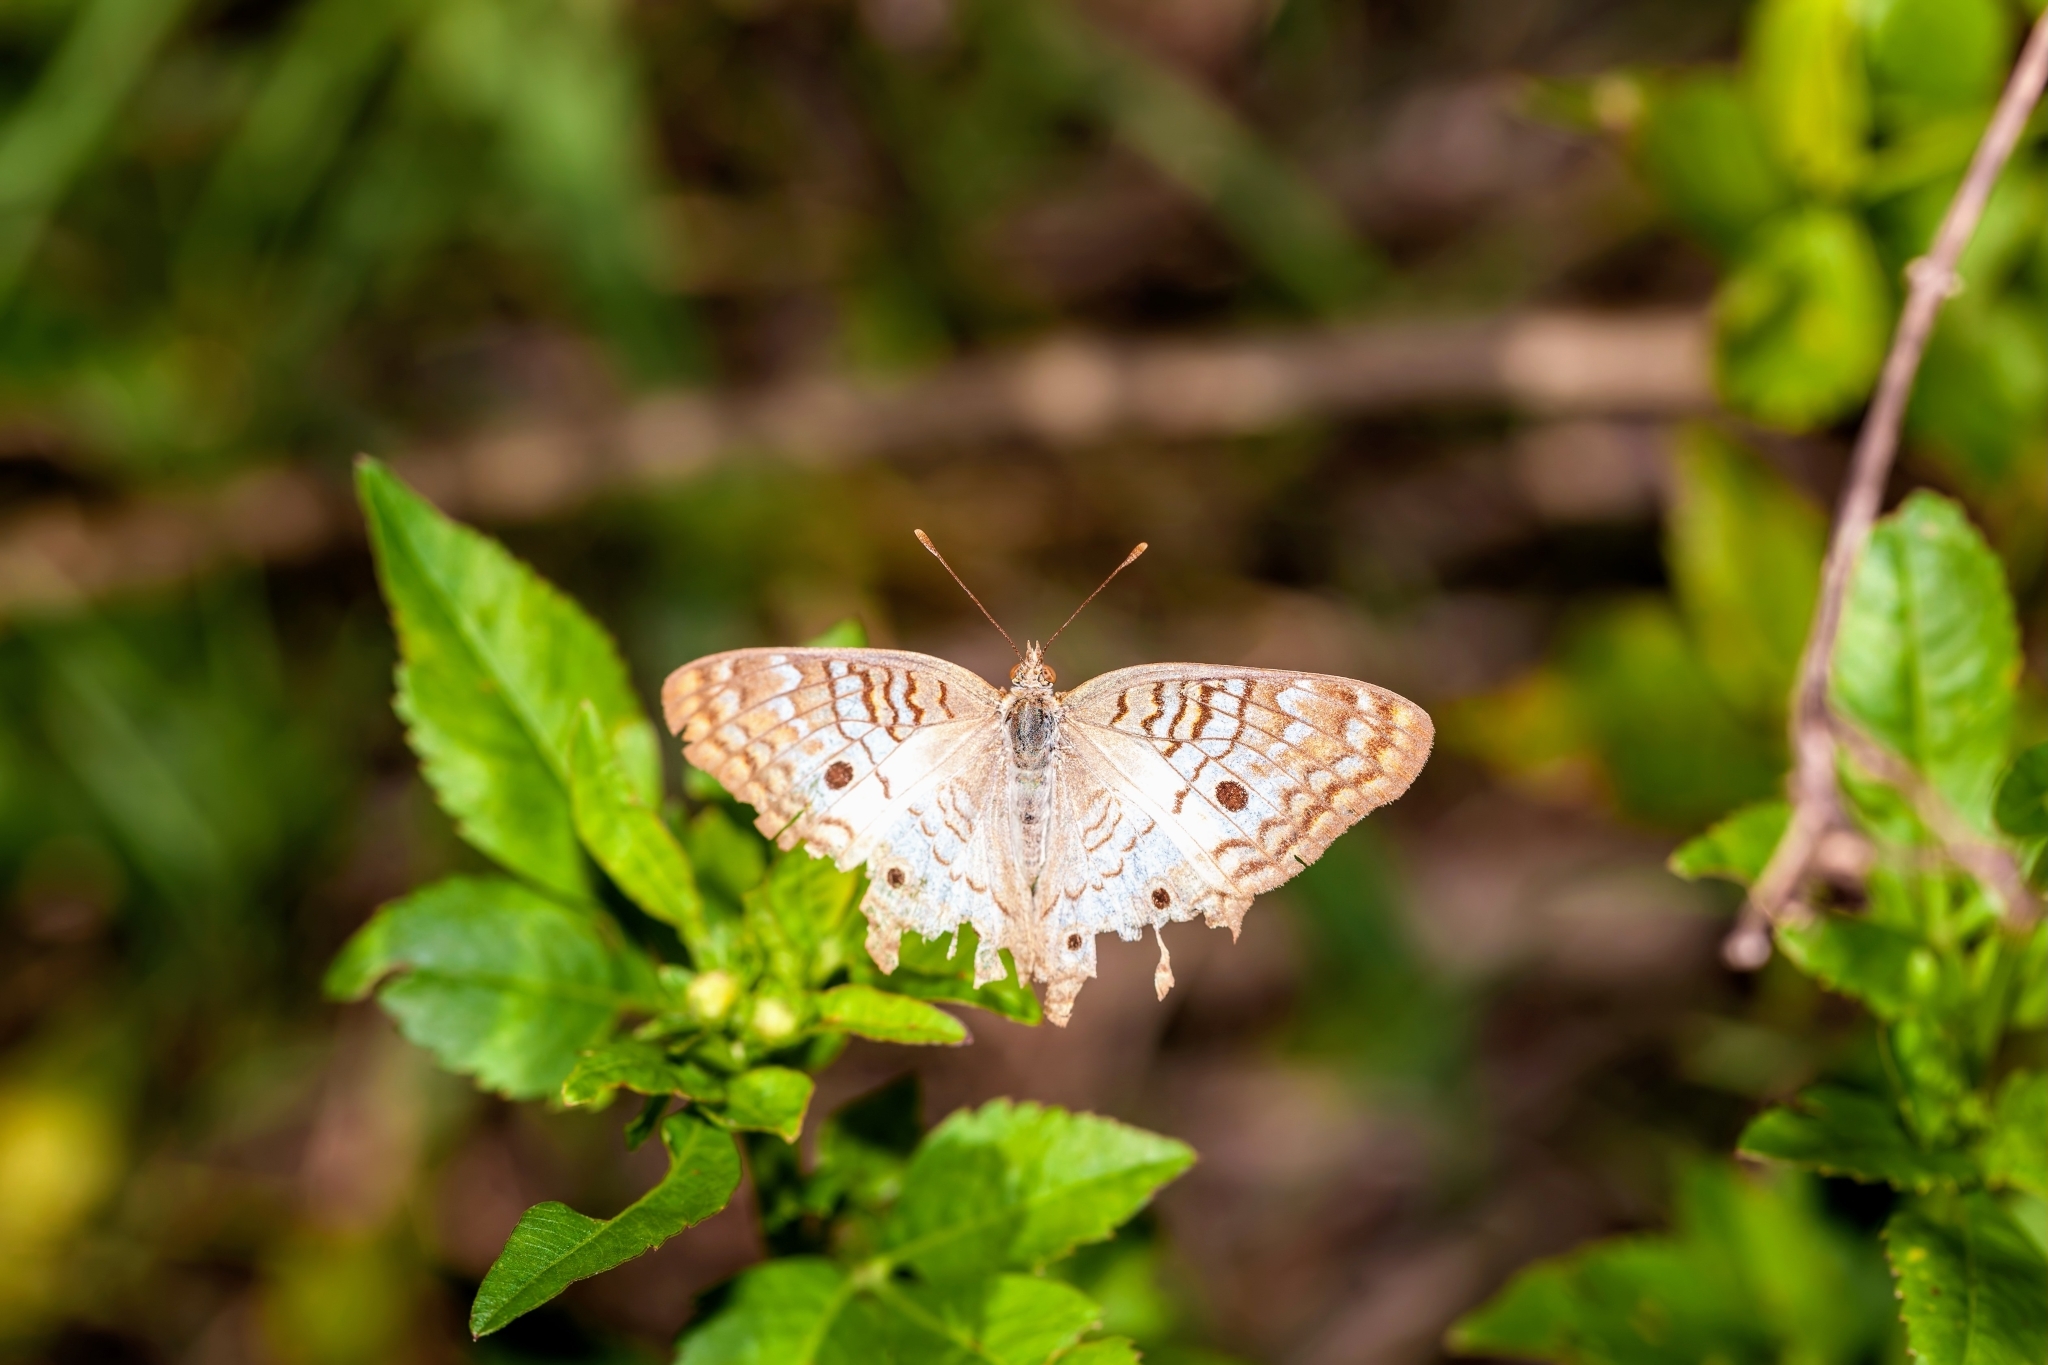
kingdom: Animalia
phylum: Arthropoda
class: Insecta
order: Lepidoptera
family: Nymphalidae
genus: Anartia
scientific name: Anartia jatrophae
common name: White peacock
